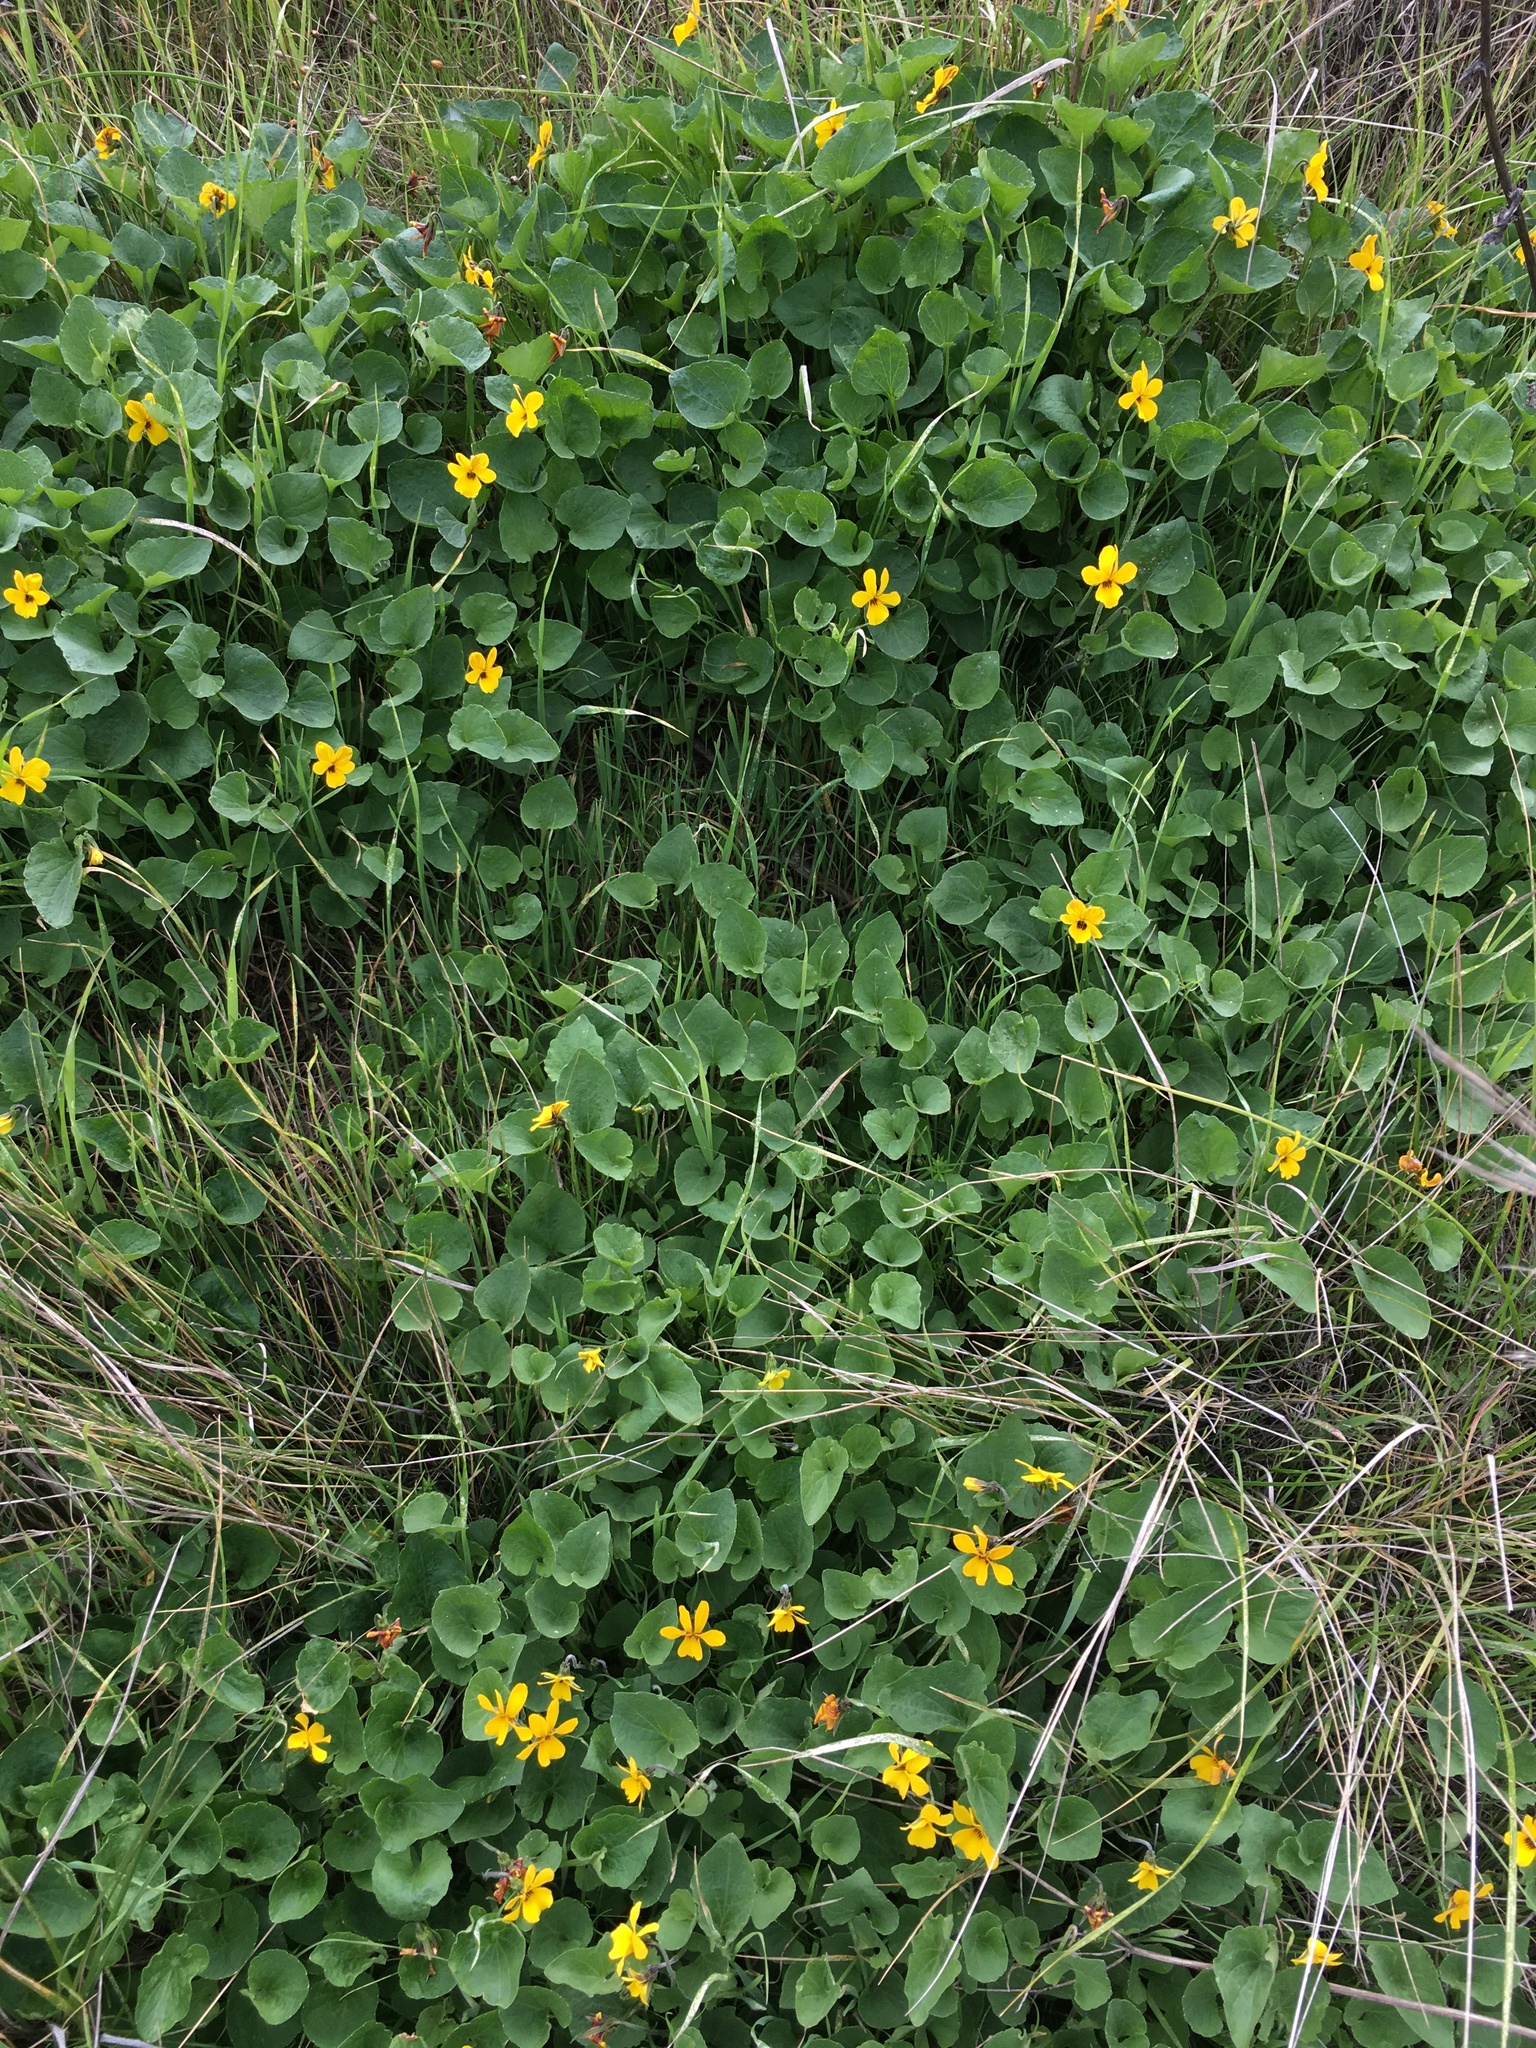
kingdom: Plantae
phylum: Tracheophyta
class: Magnoliopsida
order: Malpighiales
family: Violaceae
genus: Viola
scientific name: Viola pedunculata
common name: California golden violet
